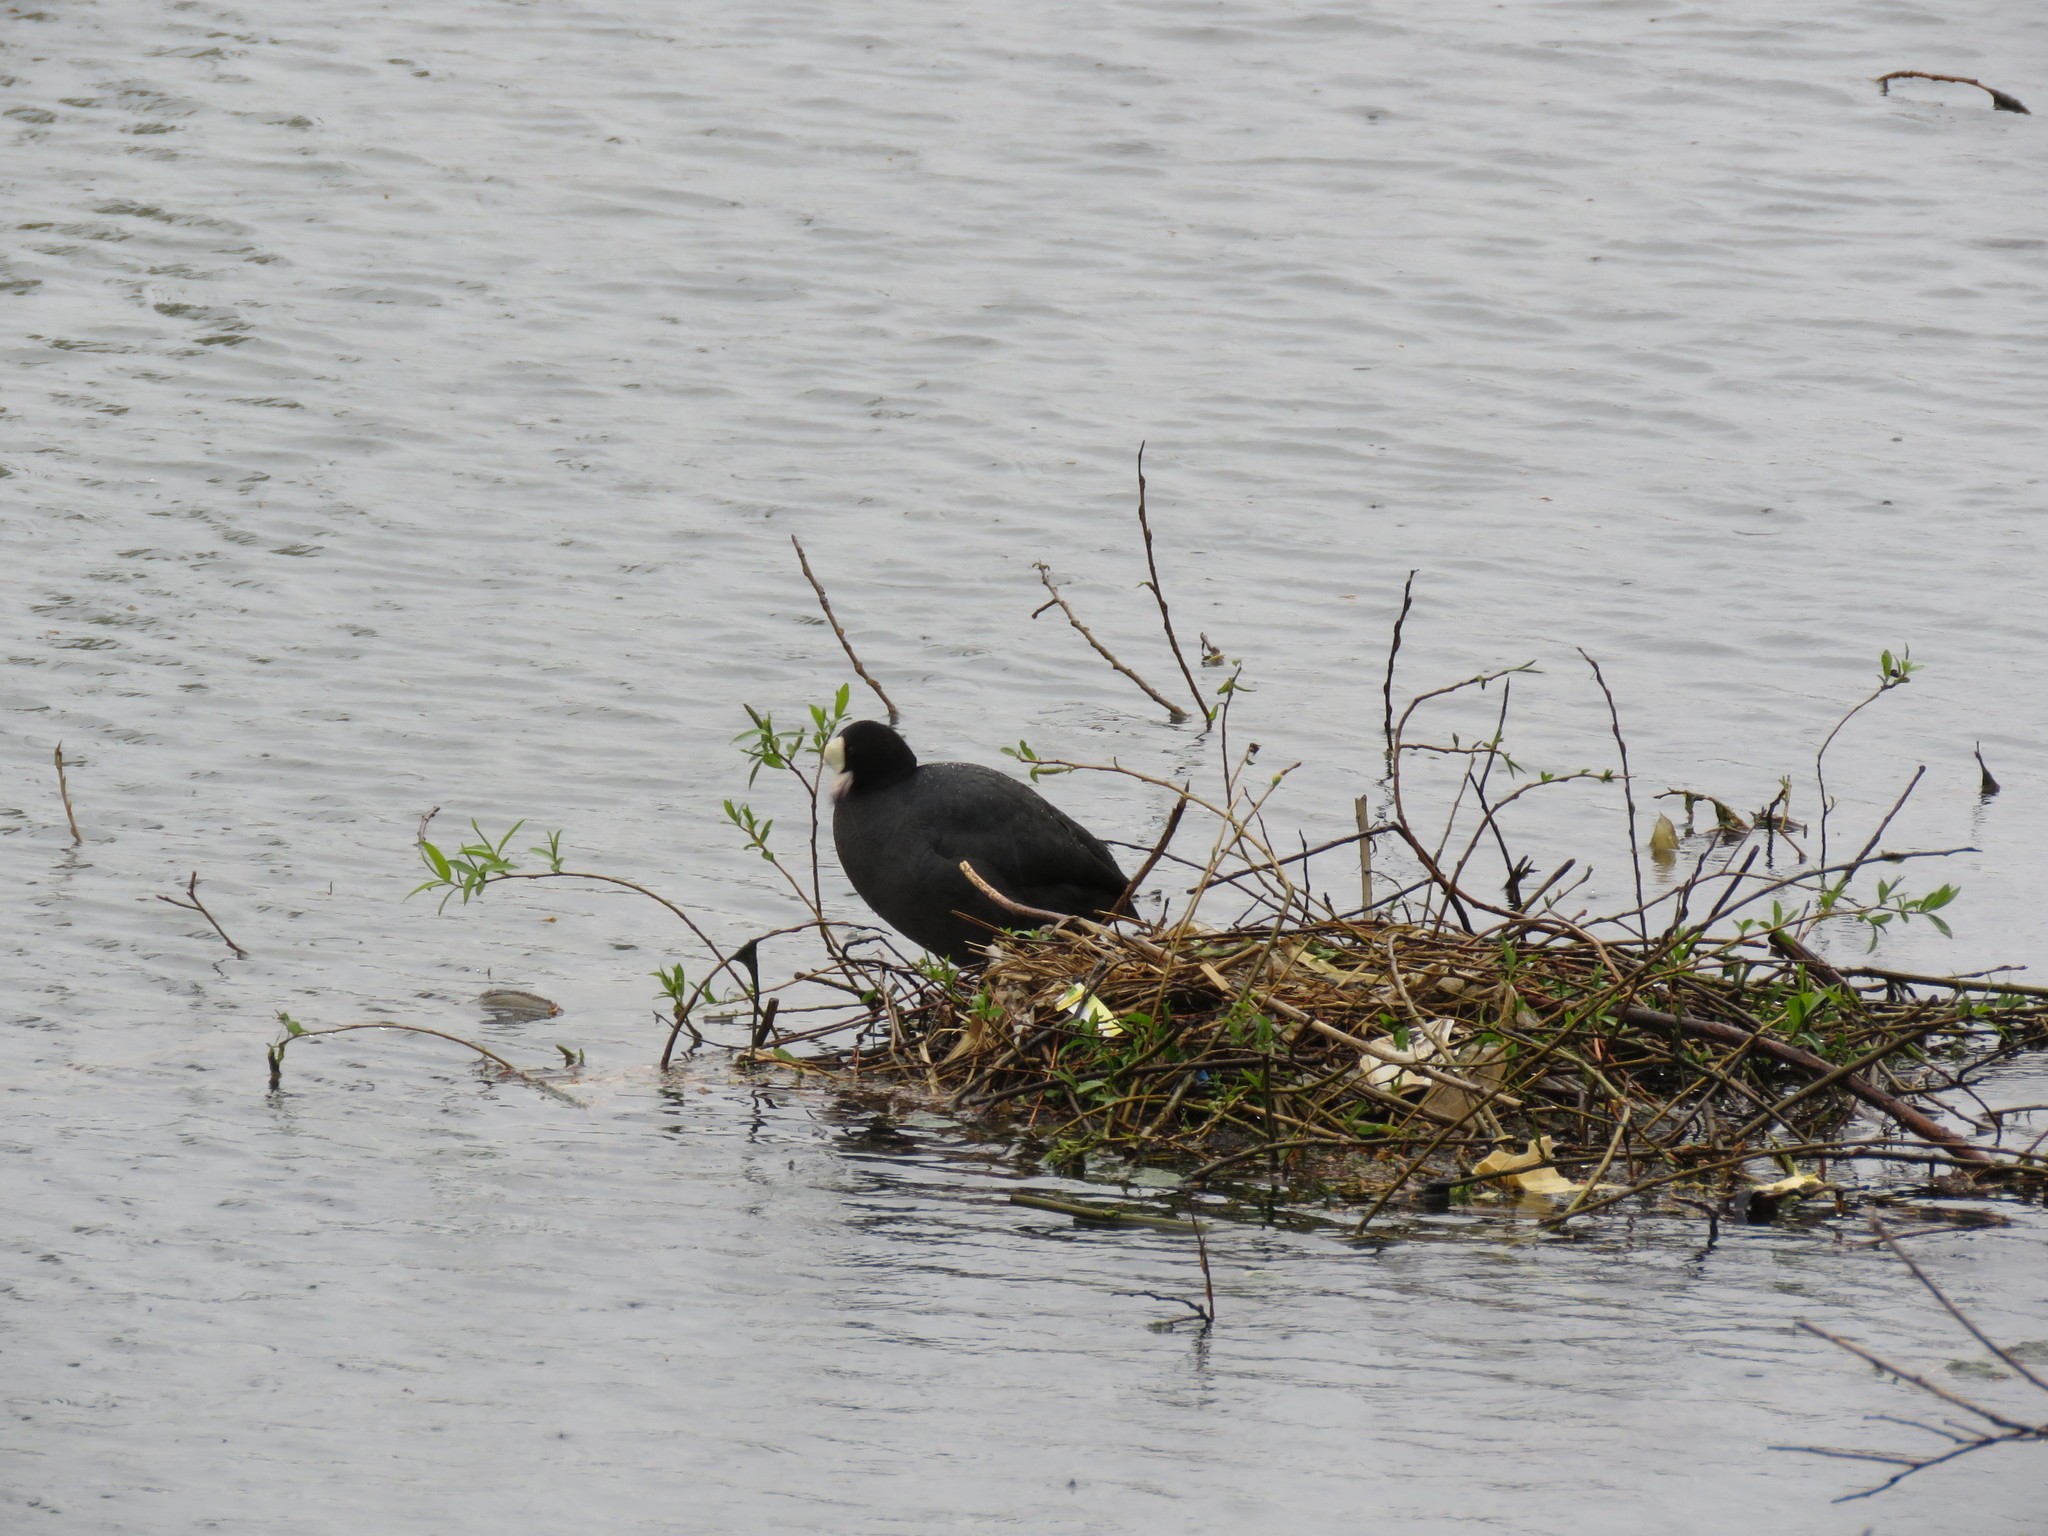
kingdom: Animalia
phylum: Chordata
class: Aves
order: Gruiformes
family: Rallidae
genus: Fulica
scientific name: Fulica atra
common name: Eurasian coot
